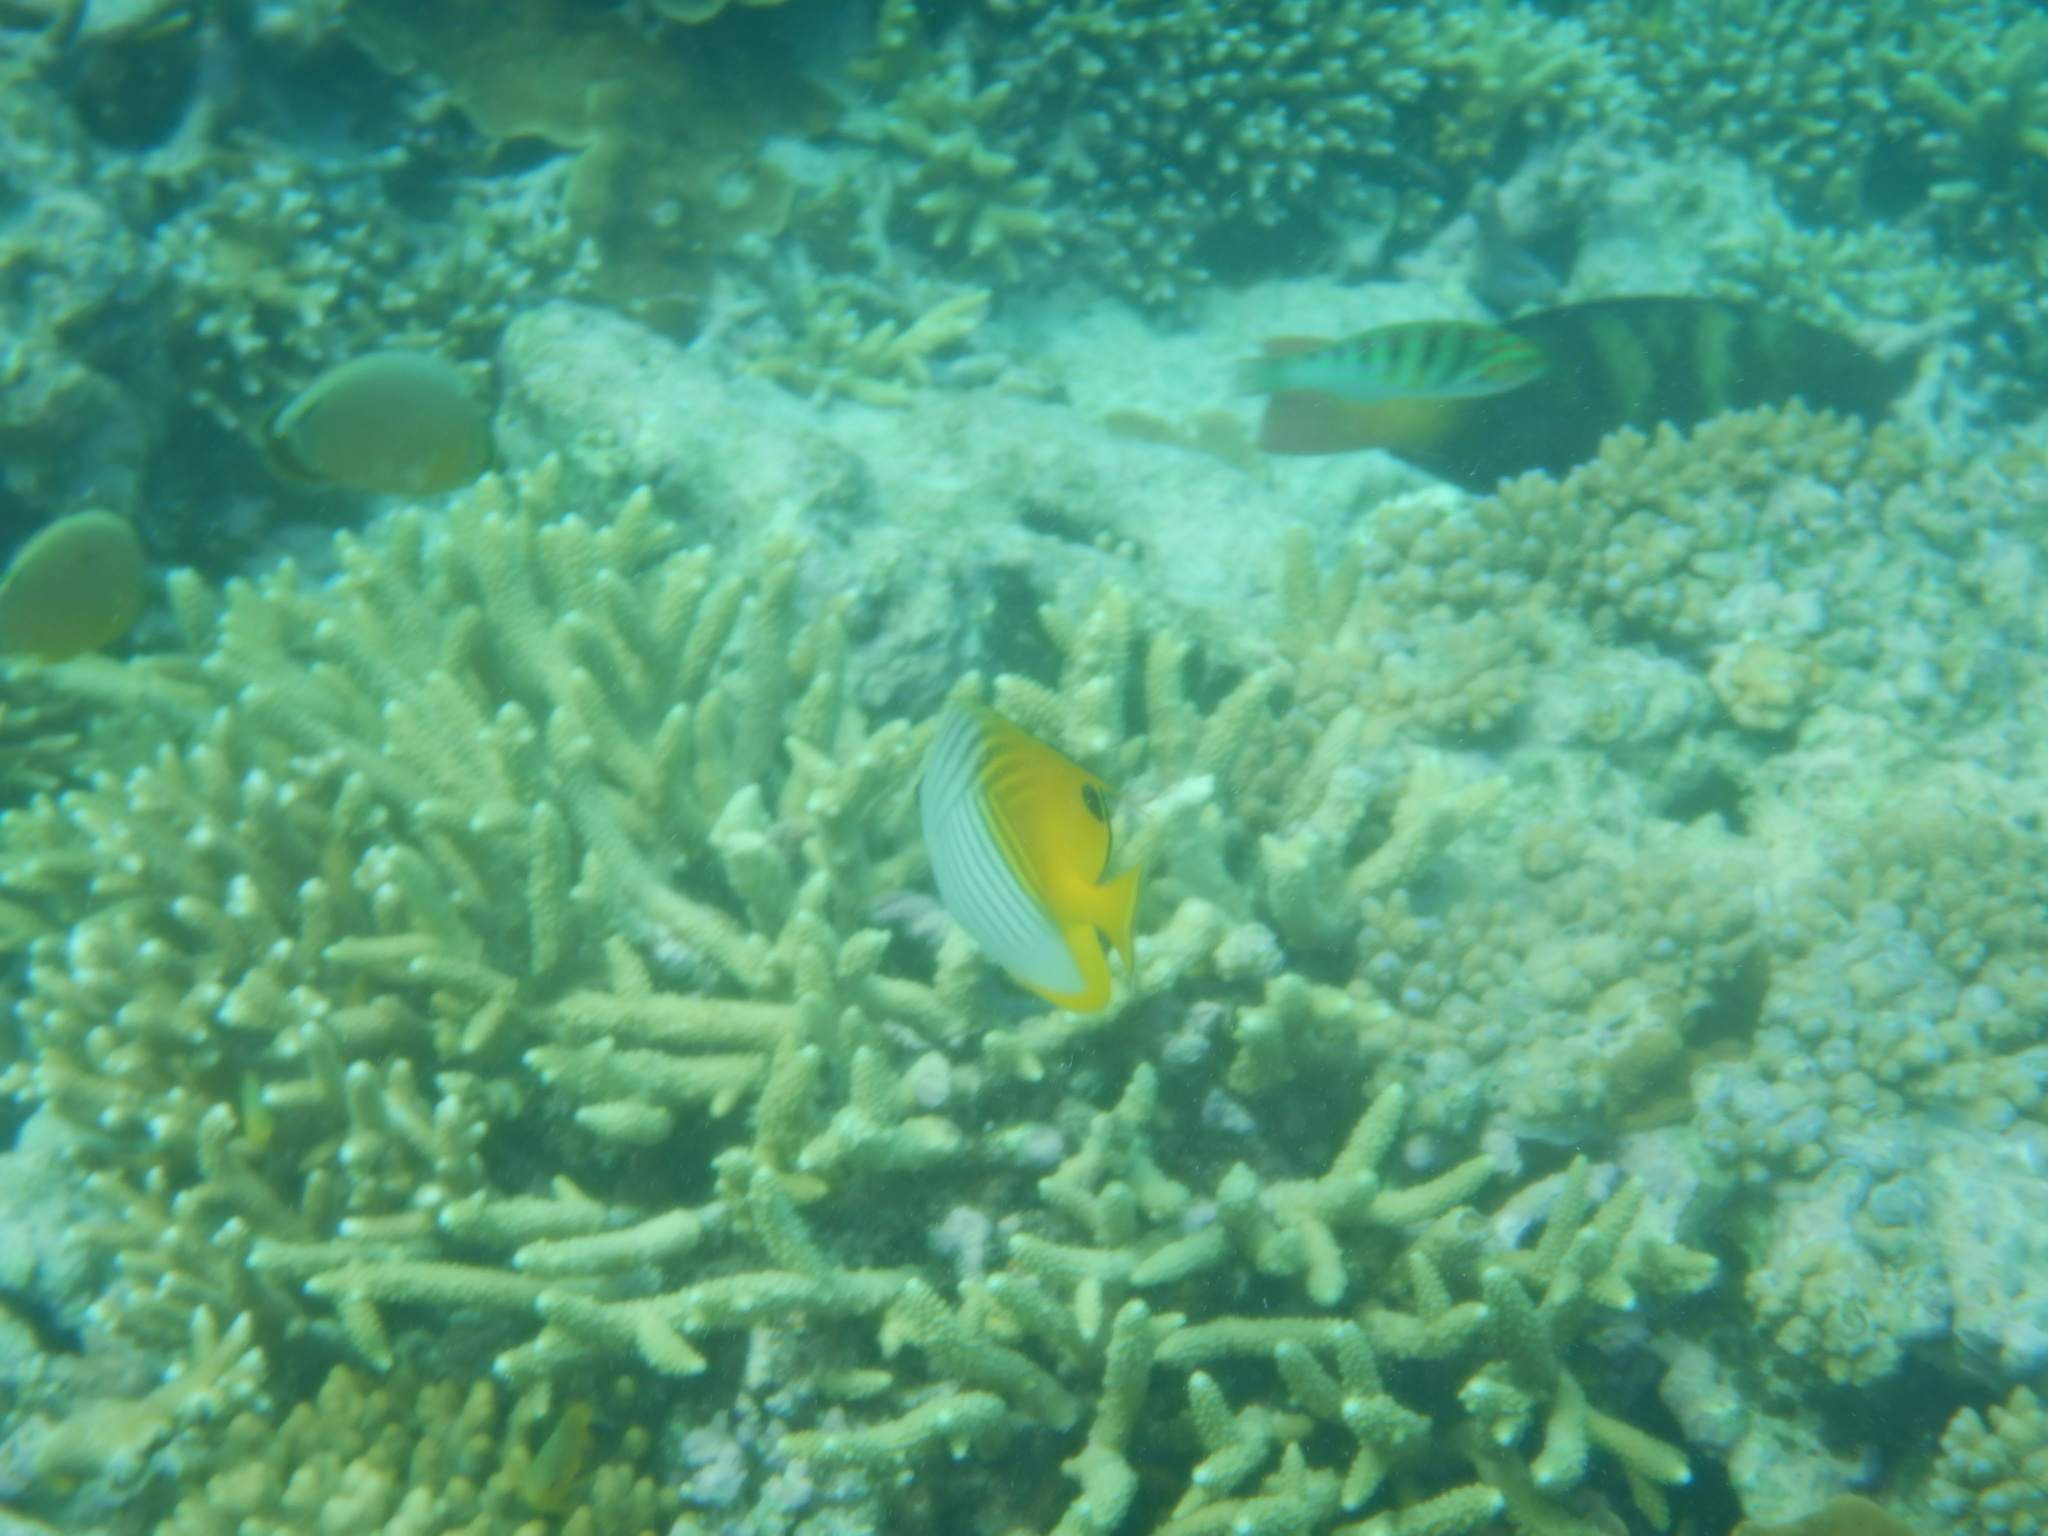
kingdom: Animalia
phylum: Chordata
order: Perciformes
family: Chaetodontidae
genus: Chaetodon
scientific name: Chaetodon auriga
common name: Threadfin butterflyfish
